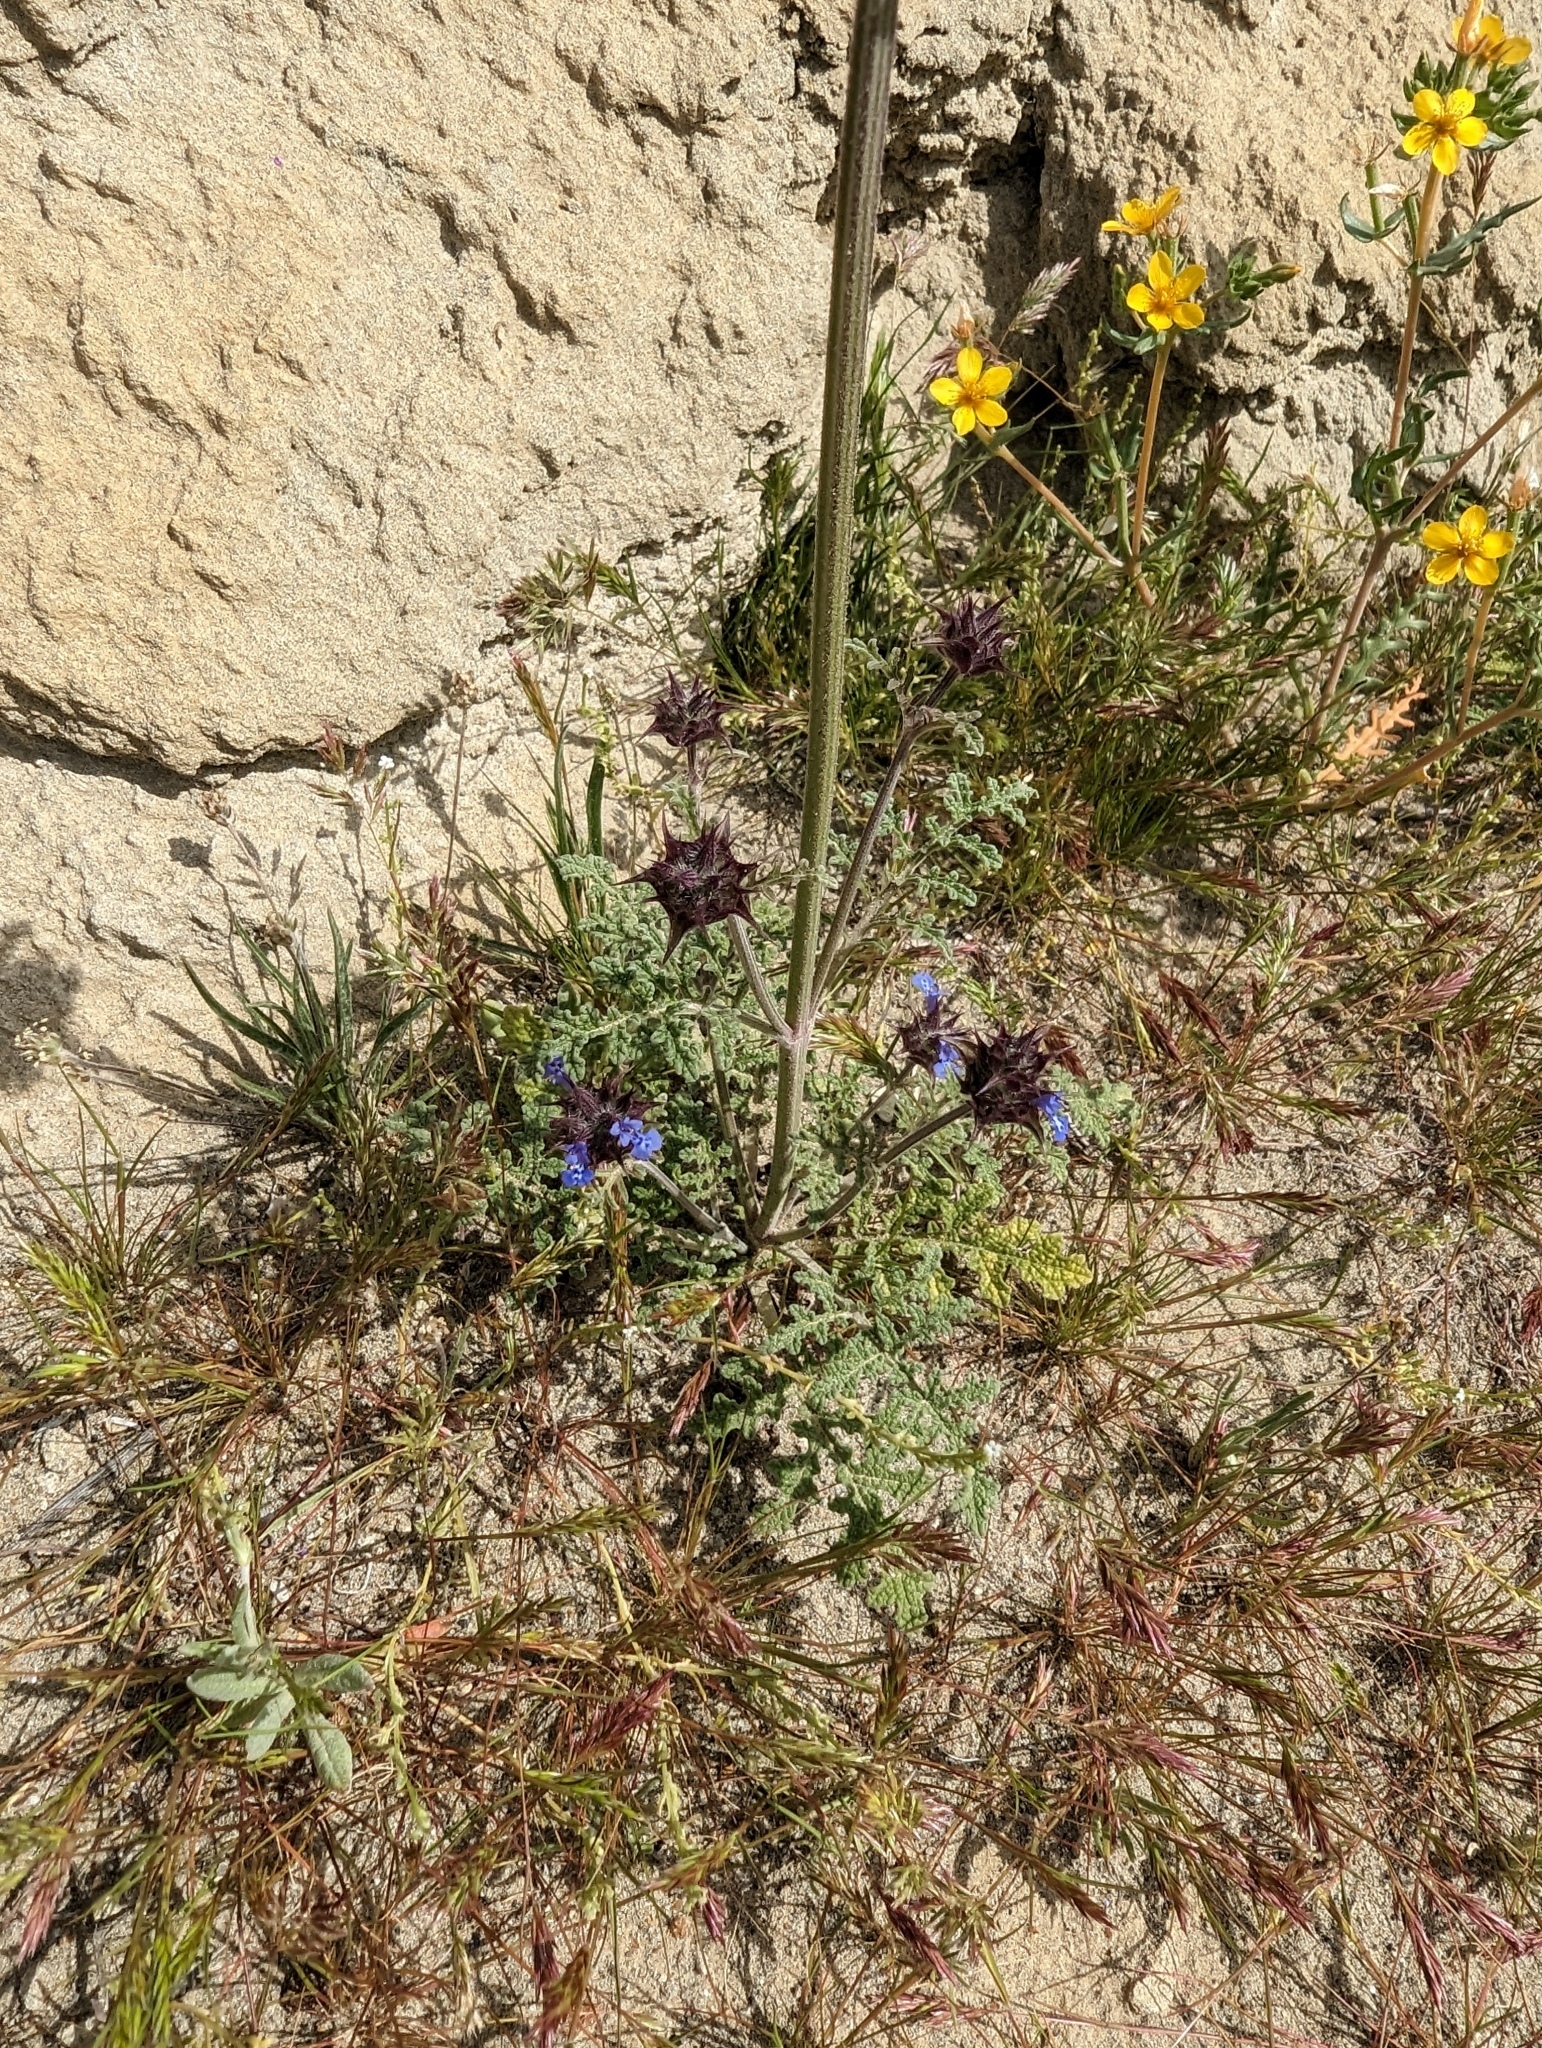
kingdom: Plantae
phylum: Tracheophyta
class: Magnoliopsida
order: Lamiales
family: Lamiaceae
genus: Salvia
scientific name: Salvia columbariae
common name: Chia
